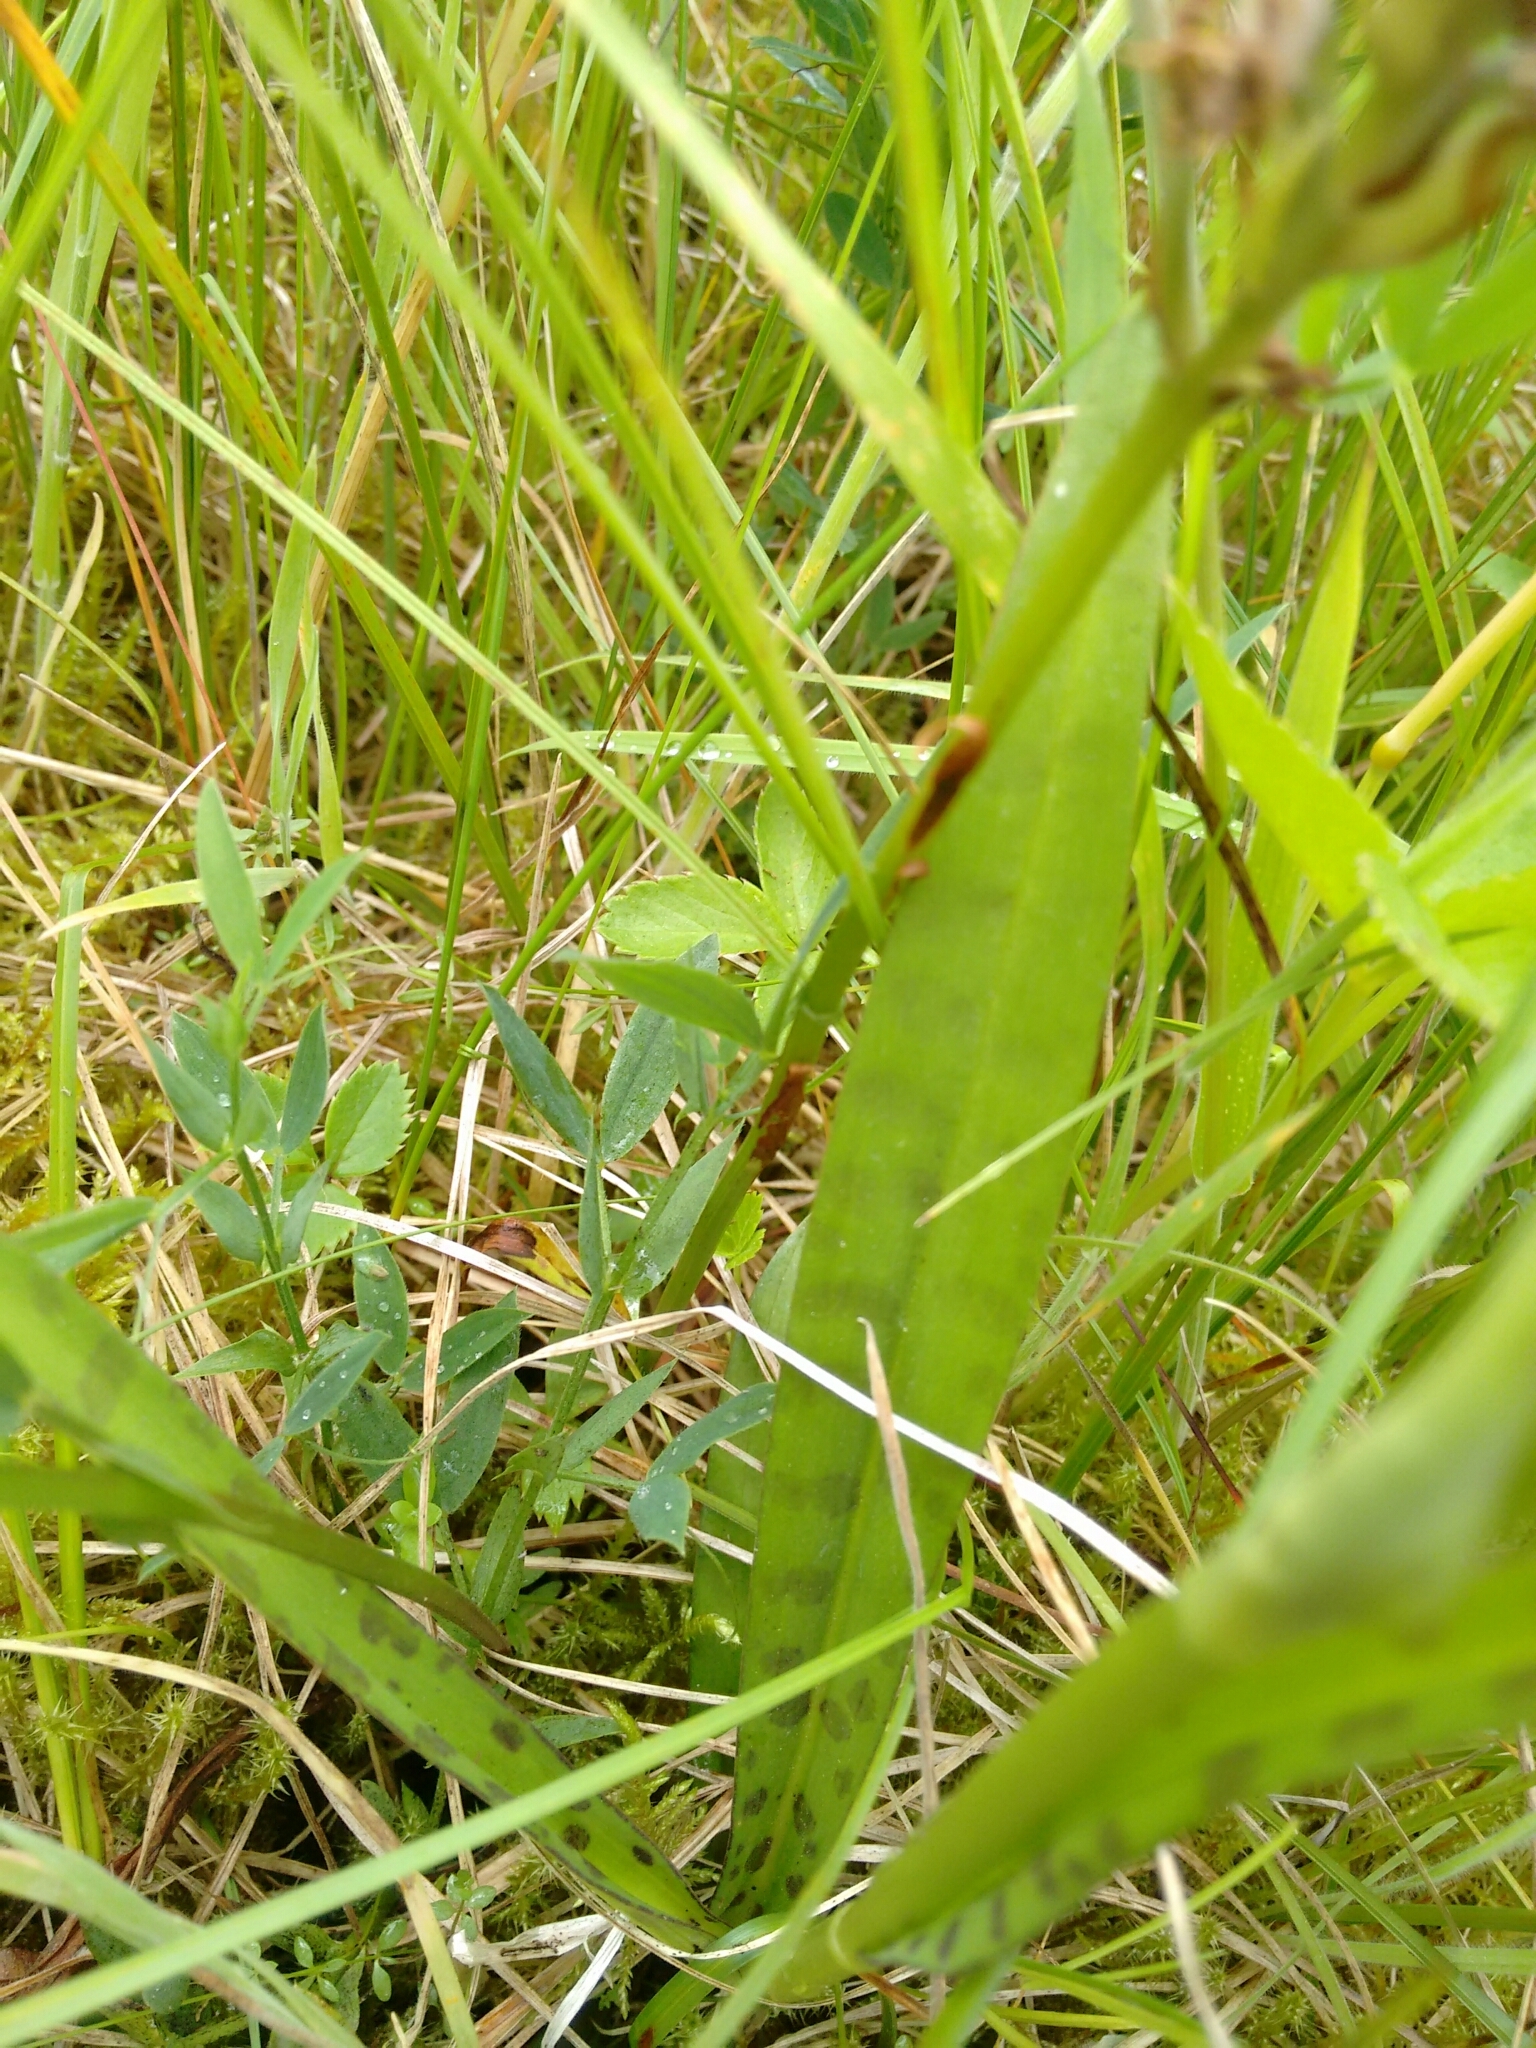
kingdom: Plantae
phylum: Tracheophyta
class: Liliopsida
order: Asparagales
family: Orchidaceae
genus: Dactylorhiza
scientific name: Dactylorhiza maculata
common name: Heath spotted-orchid
